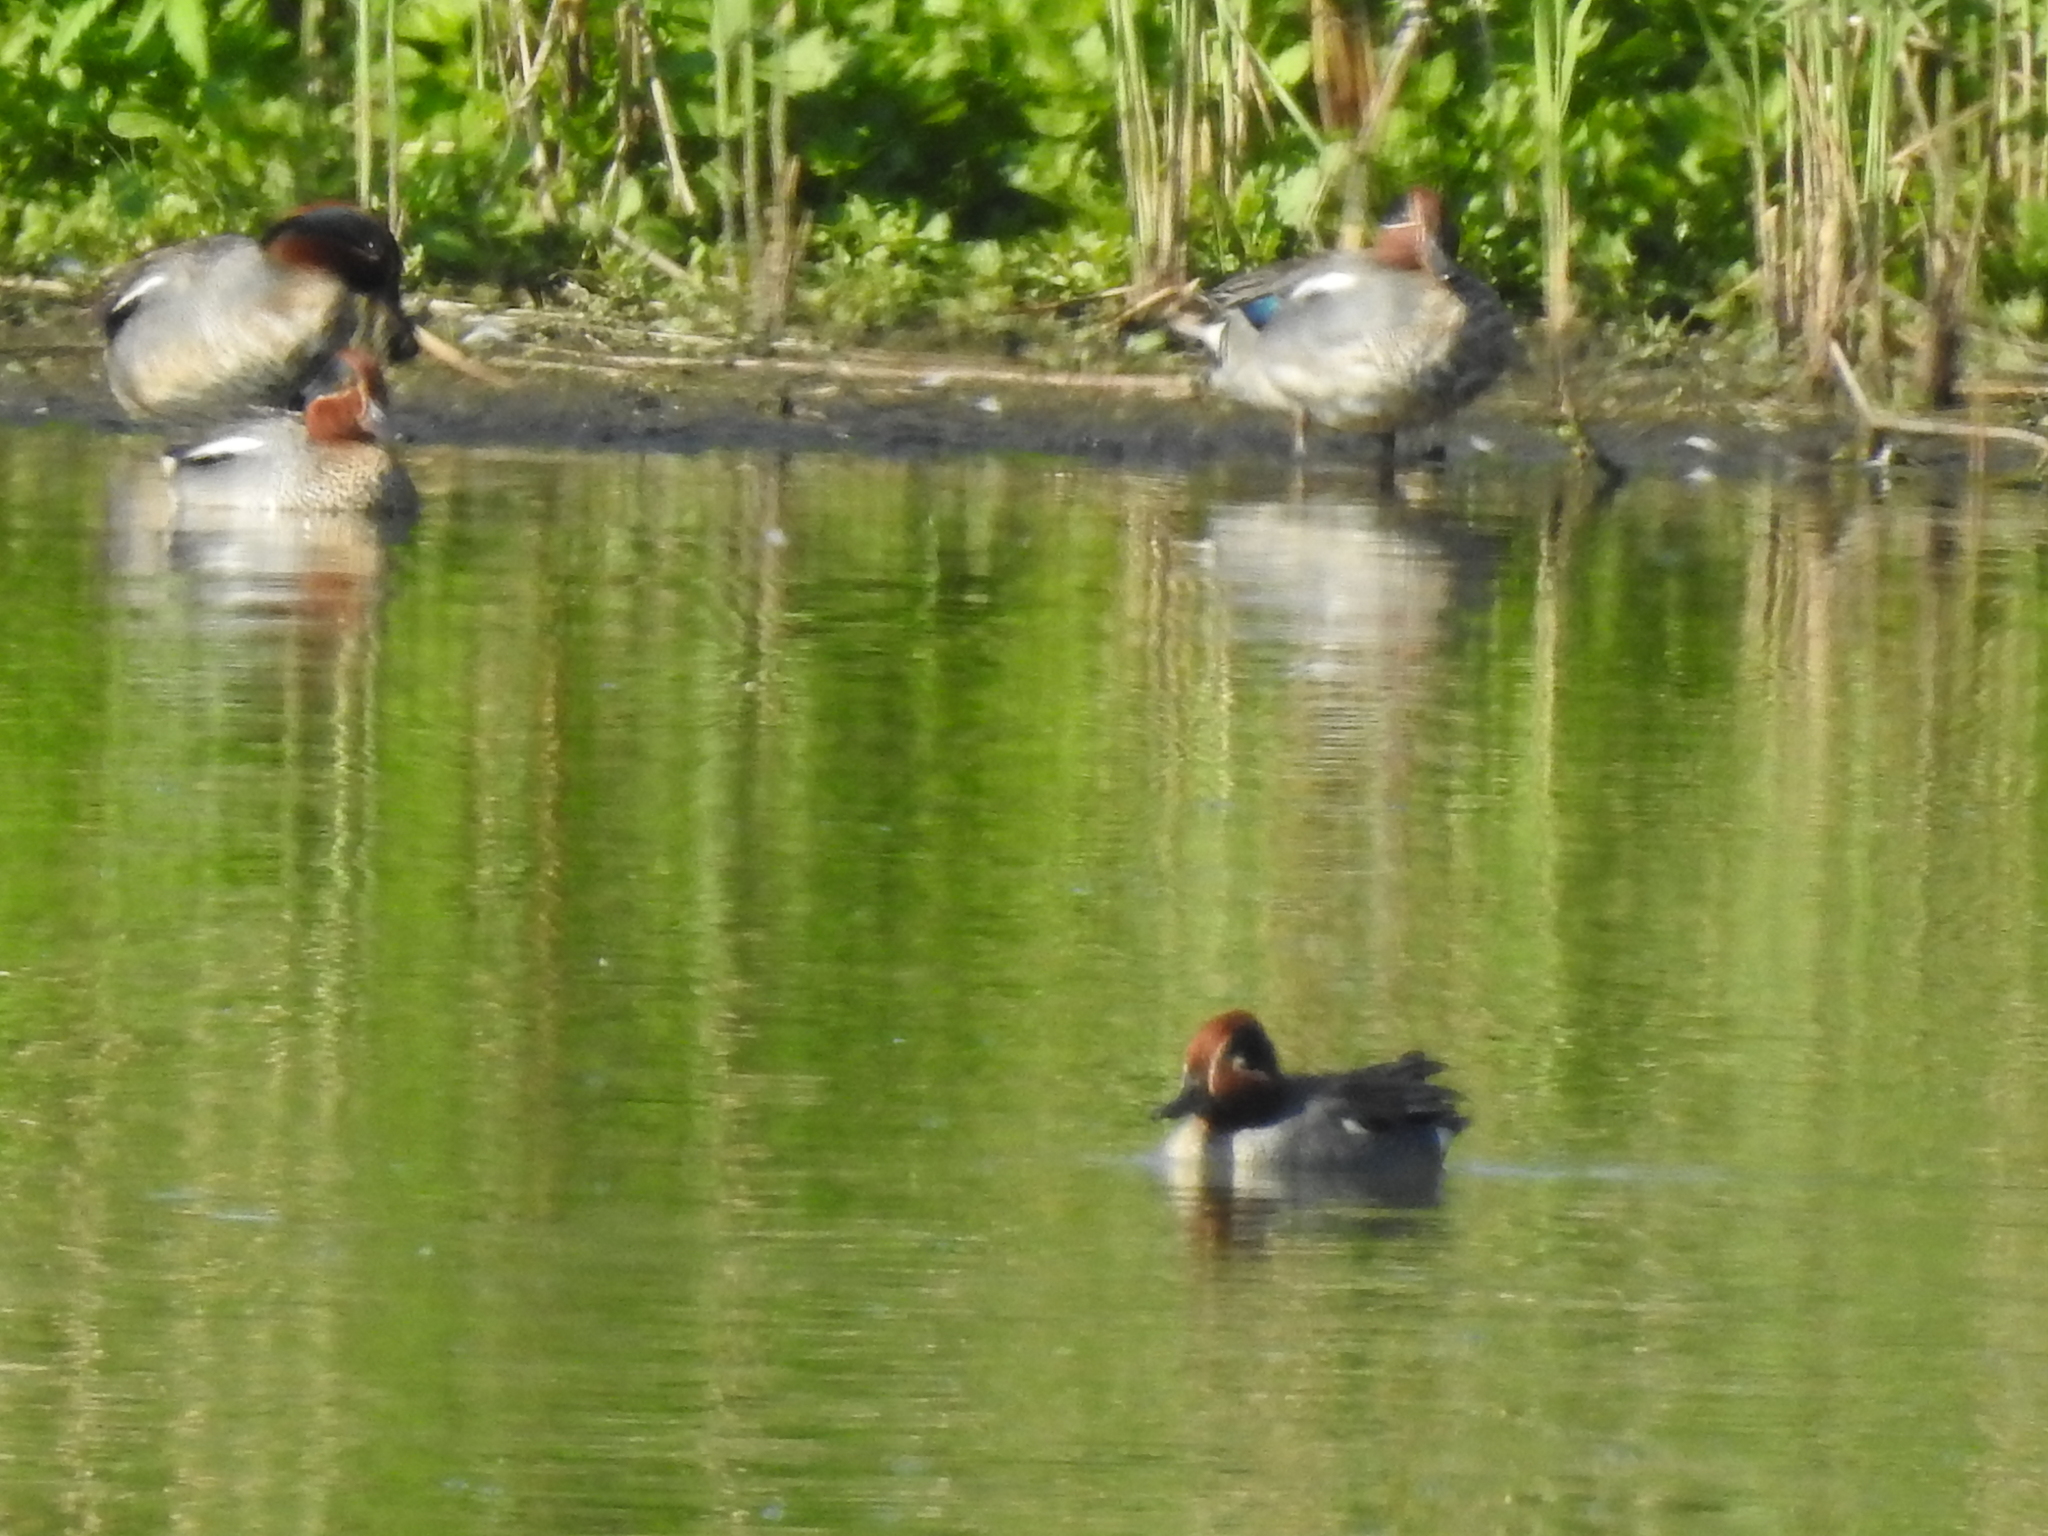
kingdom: Animalia
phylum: Chordata
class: Aves
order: Anseriformes
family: Anatidae
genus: Anas
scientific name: Anas crecca
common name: Eurasian teal
